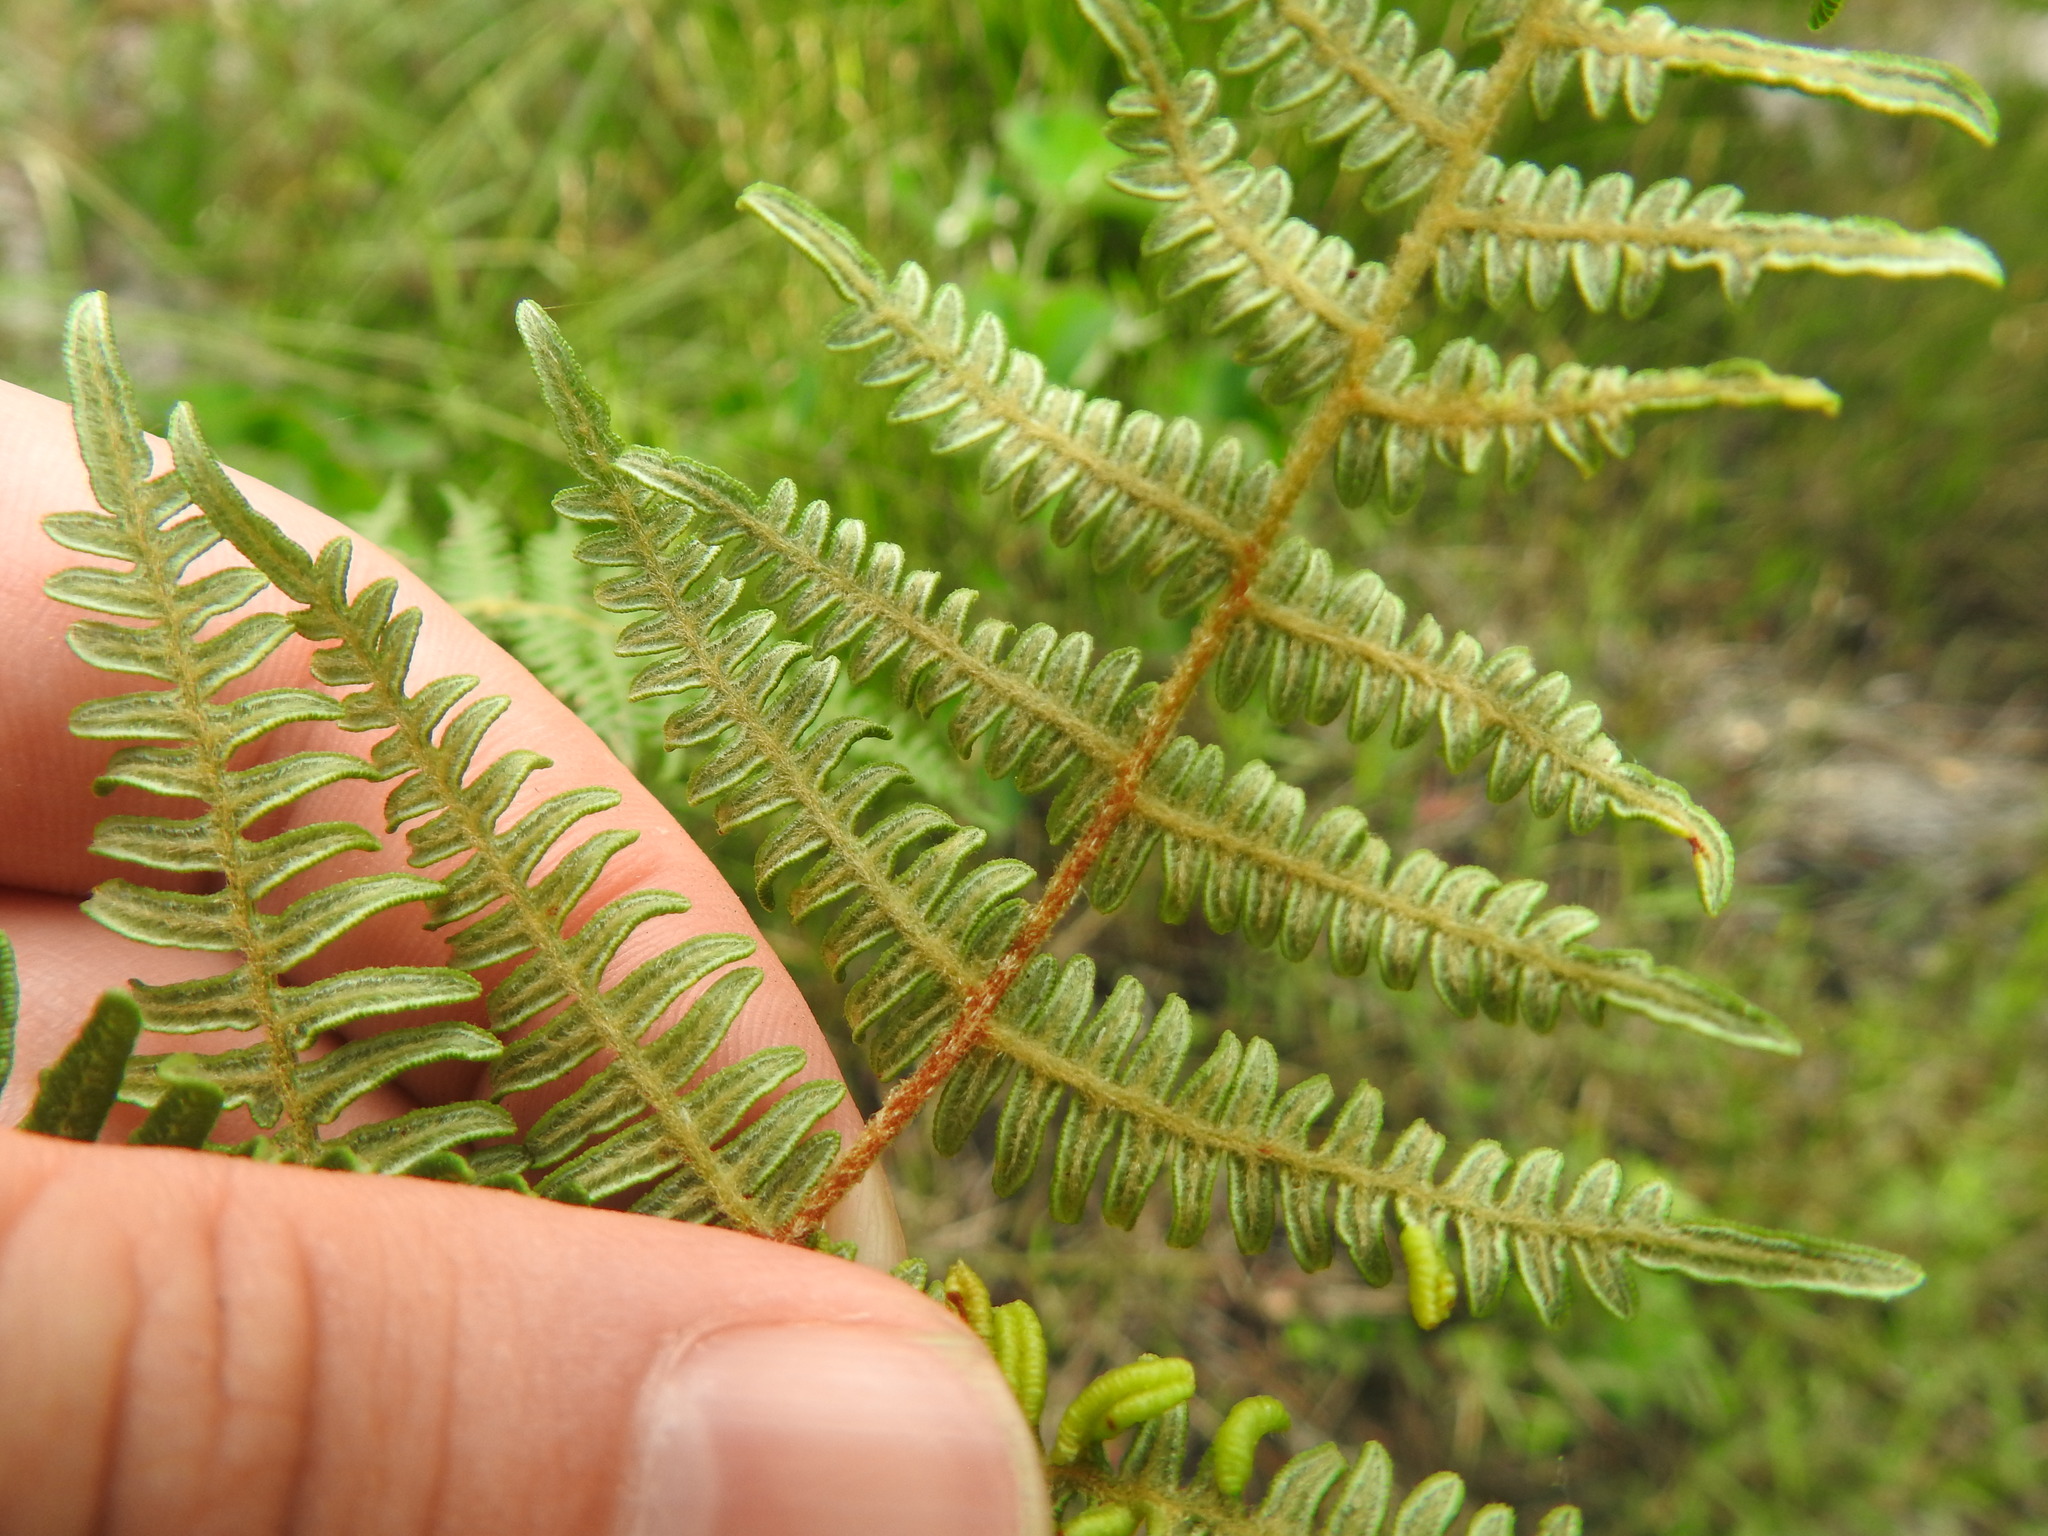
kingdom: Plantae
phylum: Tracheophyta
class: Polypodiopsida
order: Polypodiales
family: Dennstaedtiaceae
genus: Pteridium
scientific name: Pteridium aquilinum
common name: Bracken
